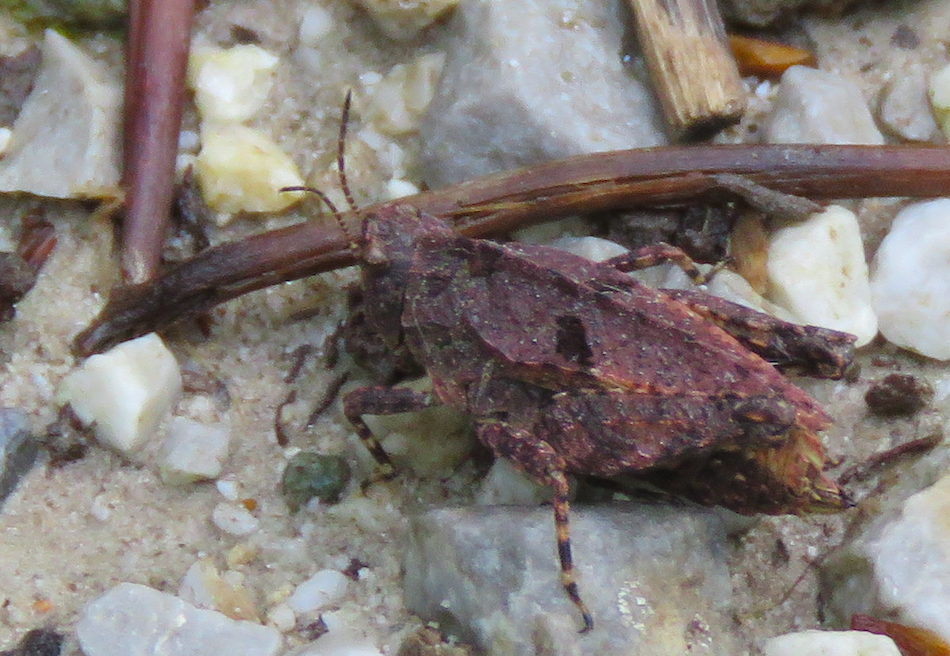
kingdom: Animalia
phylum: Arthropoda
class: Insecta
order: Orthoptera
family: Tetrigidae
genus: Tetrix
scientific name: Tetrix transsylvanica
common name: Transsylvanian wingless groundhopper
